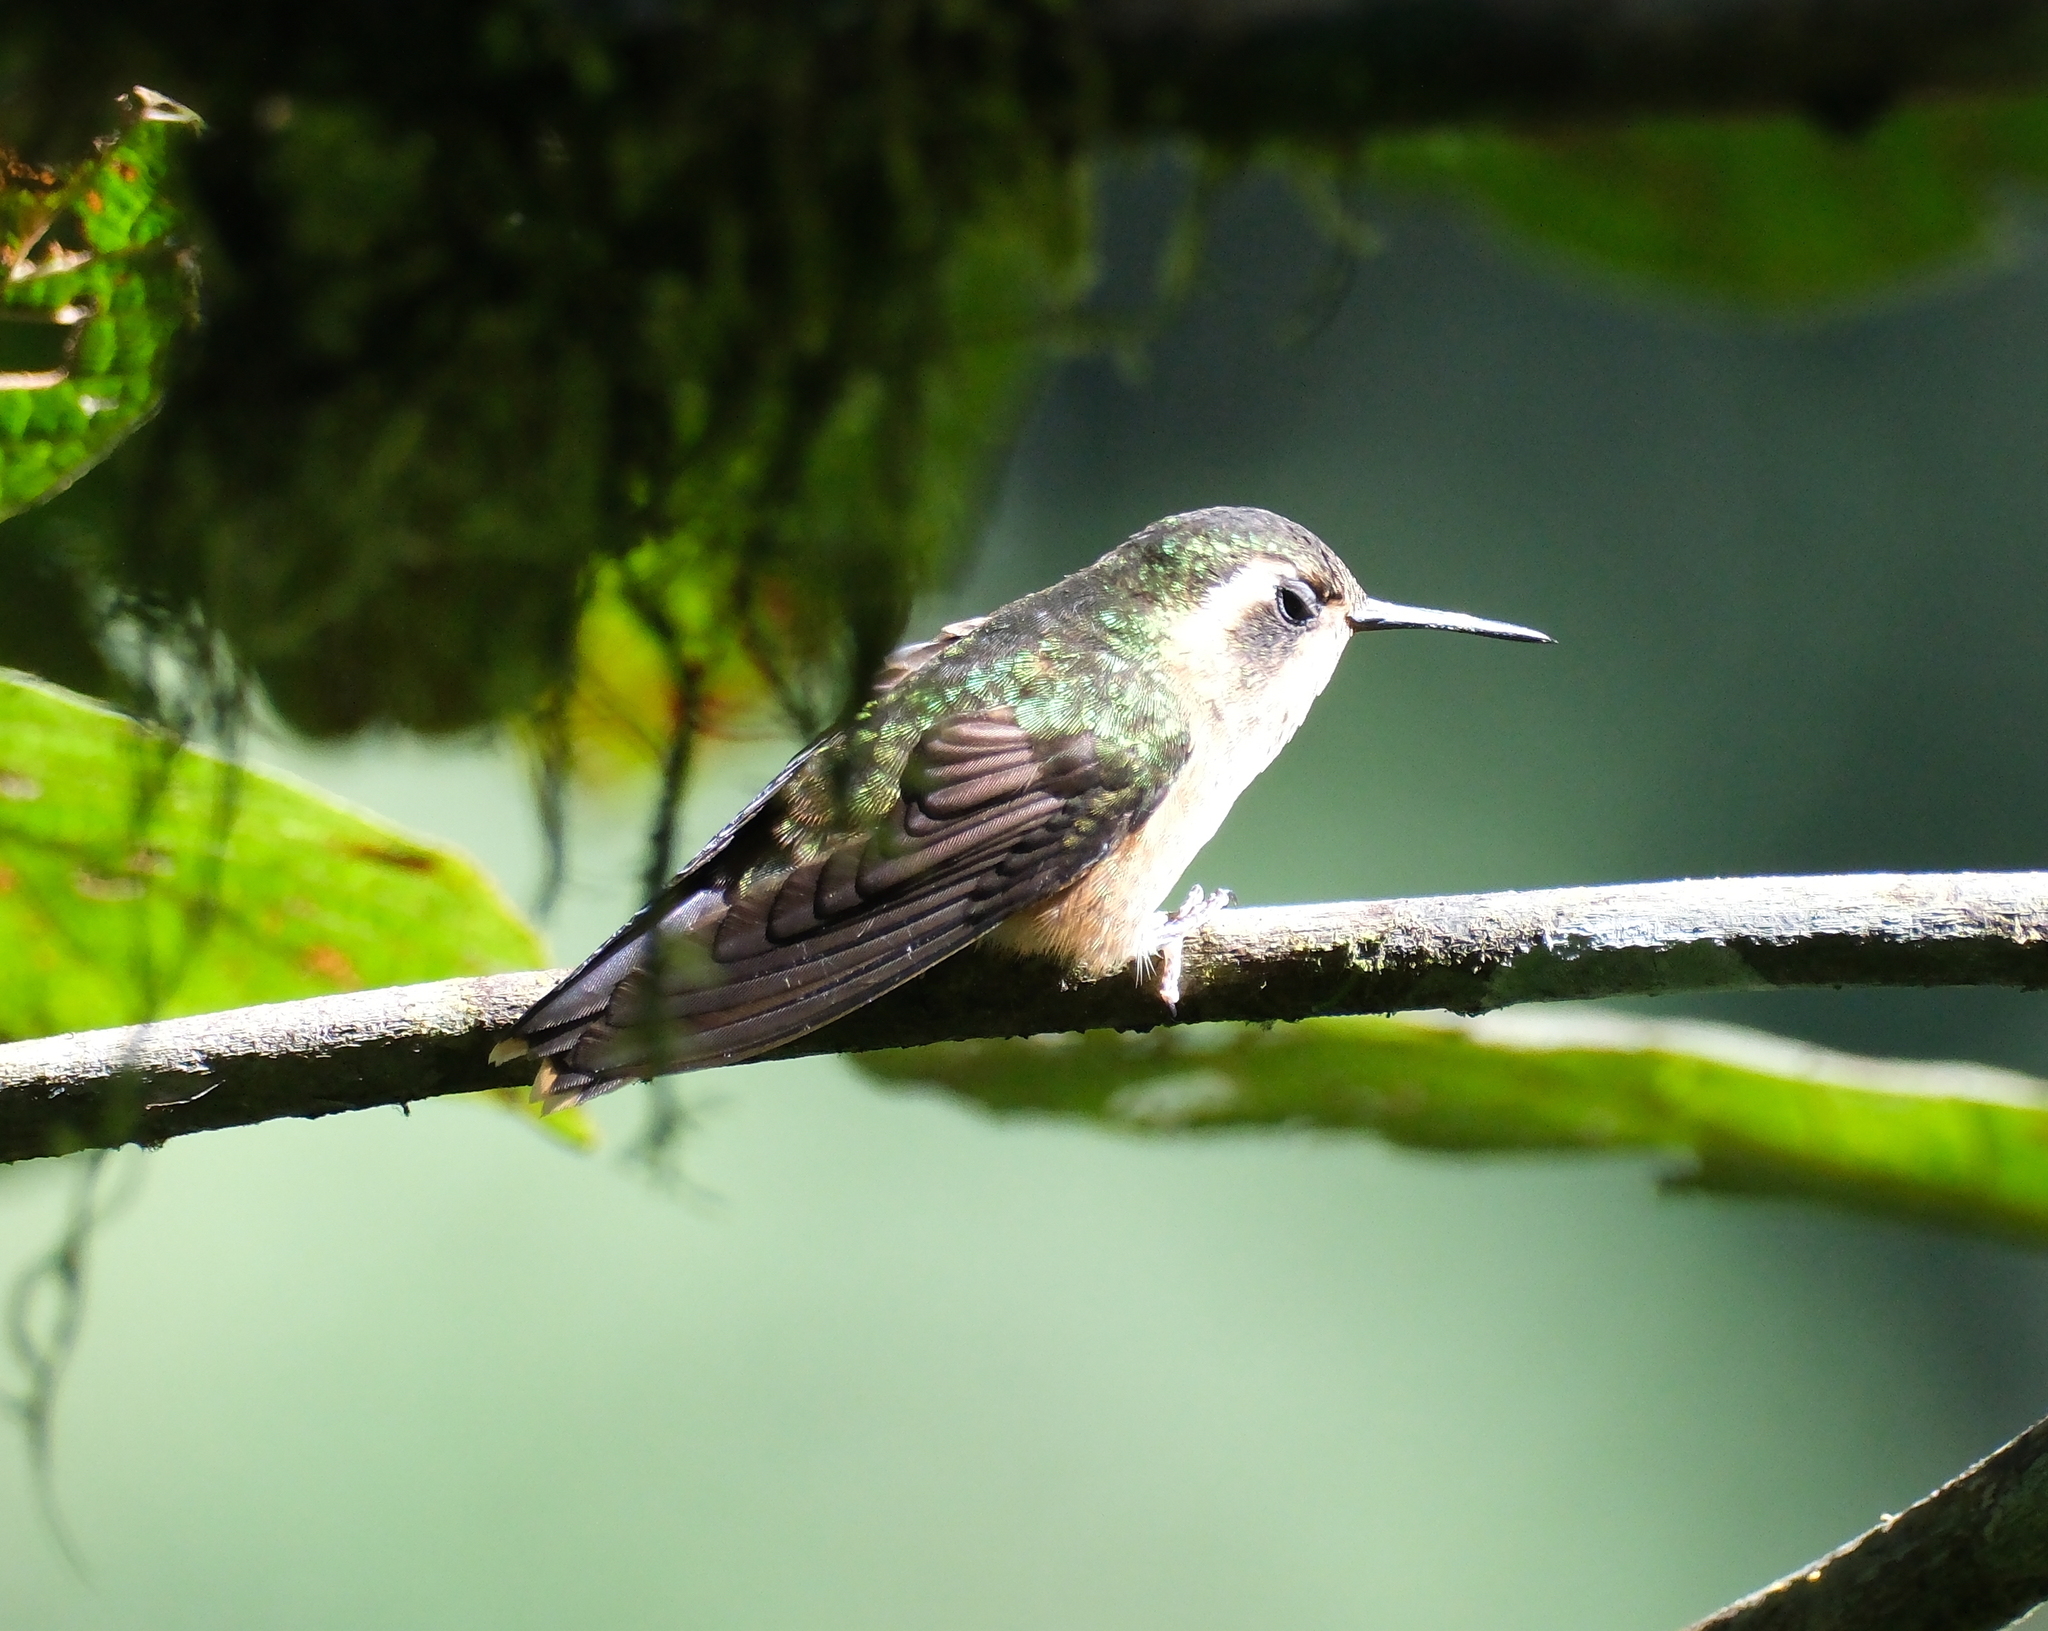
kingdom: Animalia
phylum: Chordata
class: Aves
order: Apodiformes
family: Trochilidae
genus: Adelomyia
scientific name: Adelomyia melanogenys
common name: Speckled hummingbird
